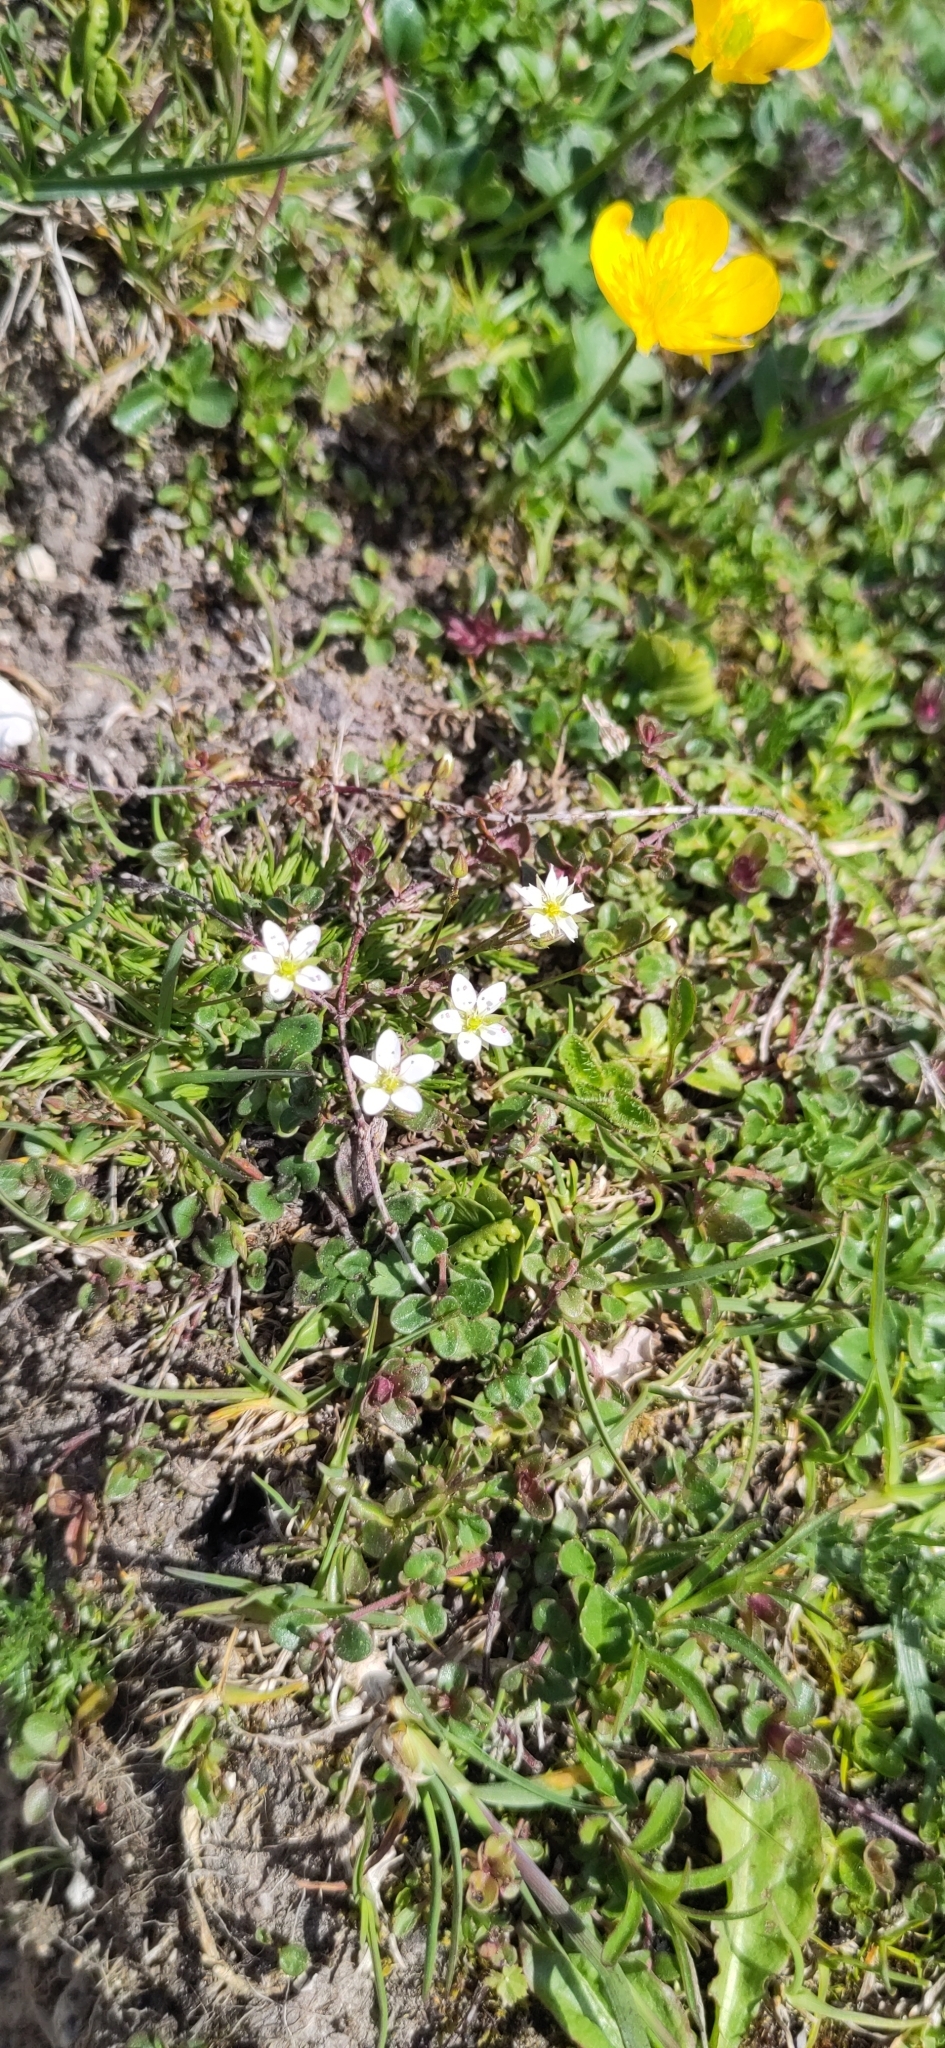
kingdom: Plantae
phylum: Tracheophyta
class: Magnoliopsida
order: Caryophyllales
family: Caryophyllaceae
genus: Sabulina
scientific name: Sabulina verna
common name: Spring sandwort
